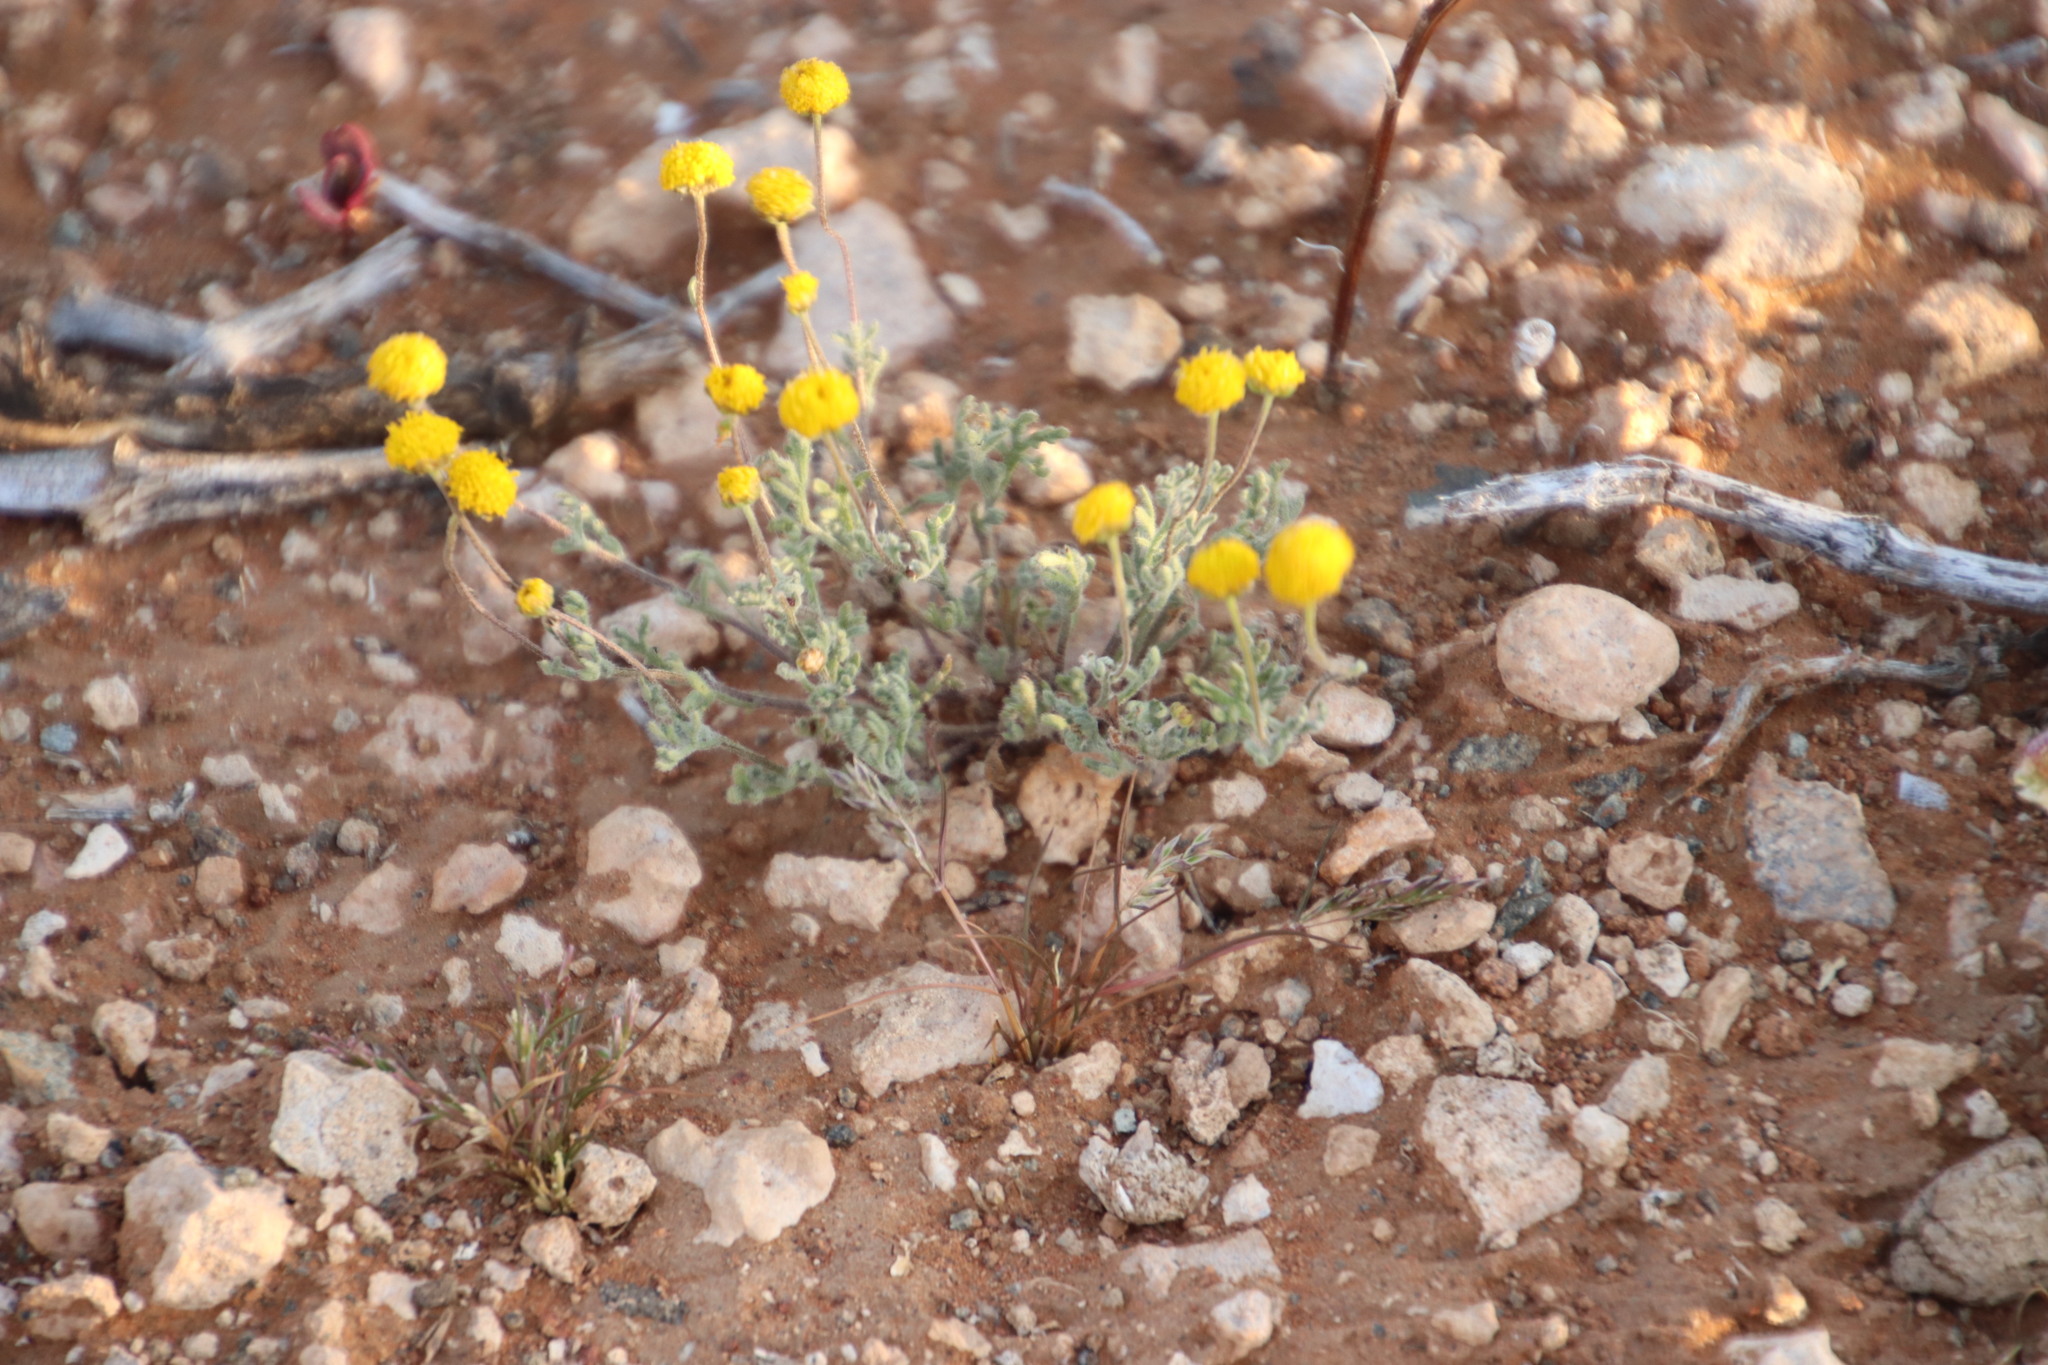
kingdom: Plantae
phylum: Tracheophyta
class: Magnoliopsida
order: Asterales
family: Asteraceae
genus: Pentzia
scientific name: Pentzia incana
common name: African sheepbush
